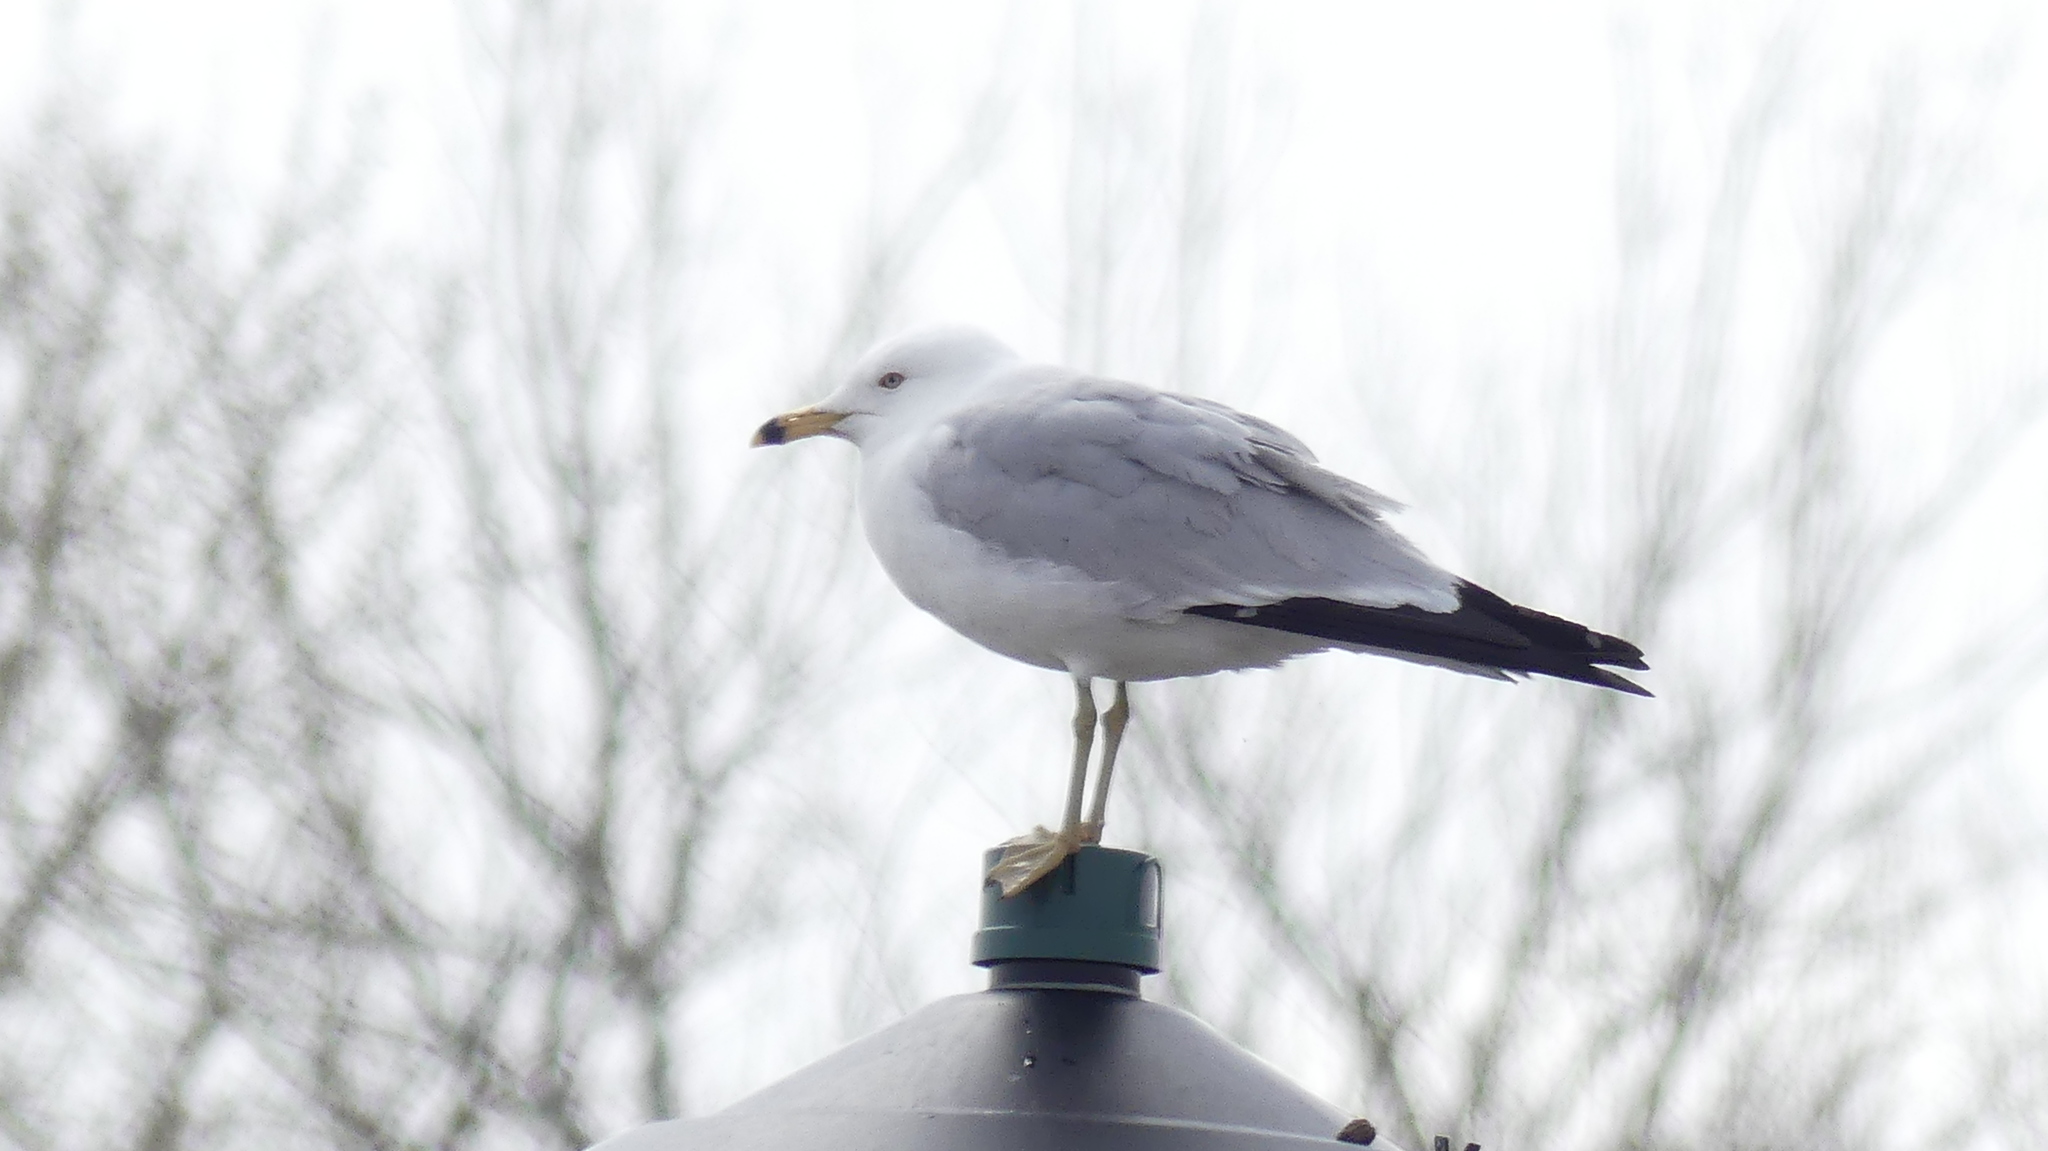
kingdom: Animalia
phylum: Chordata
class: Aves
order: Charadriiformes
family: Laridae
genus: Larus
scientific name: Larus delawarensis
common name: Ring-billed gull
